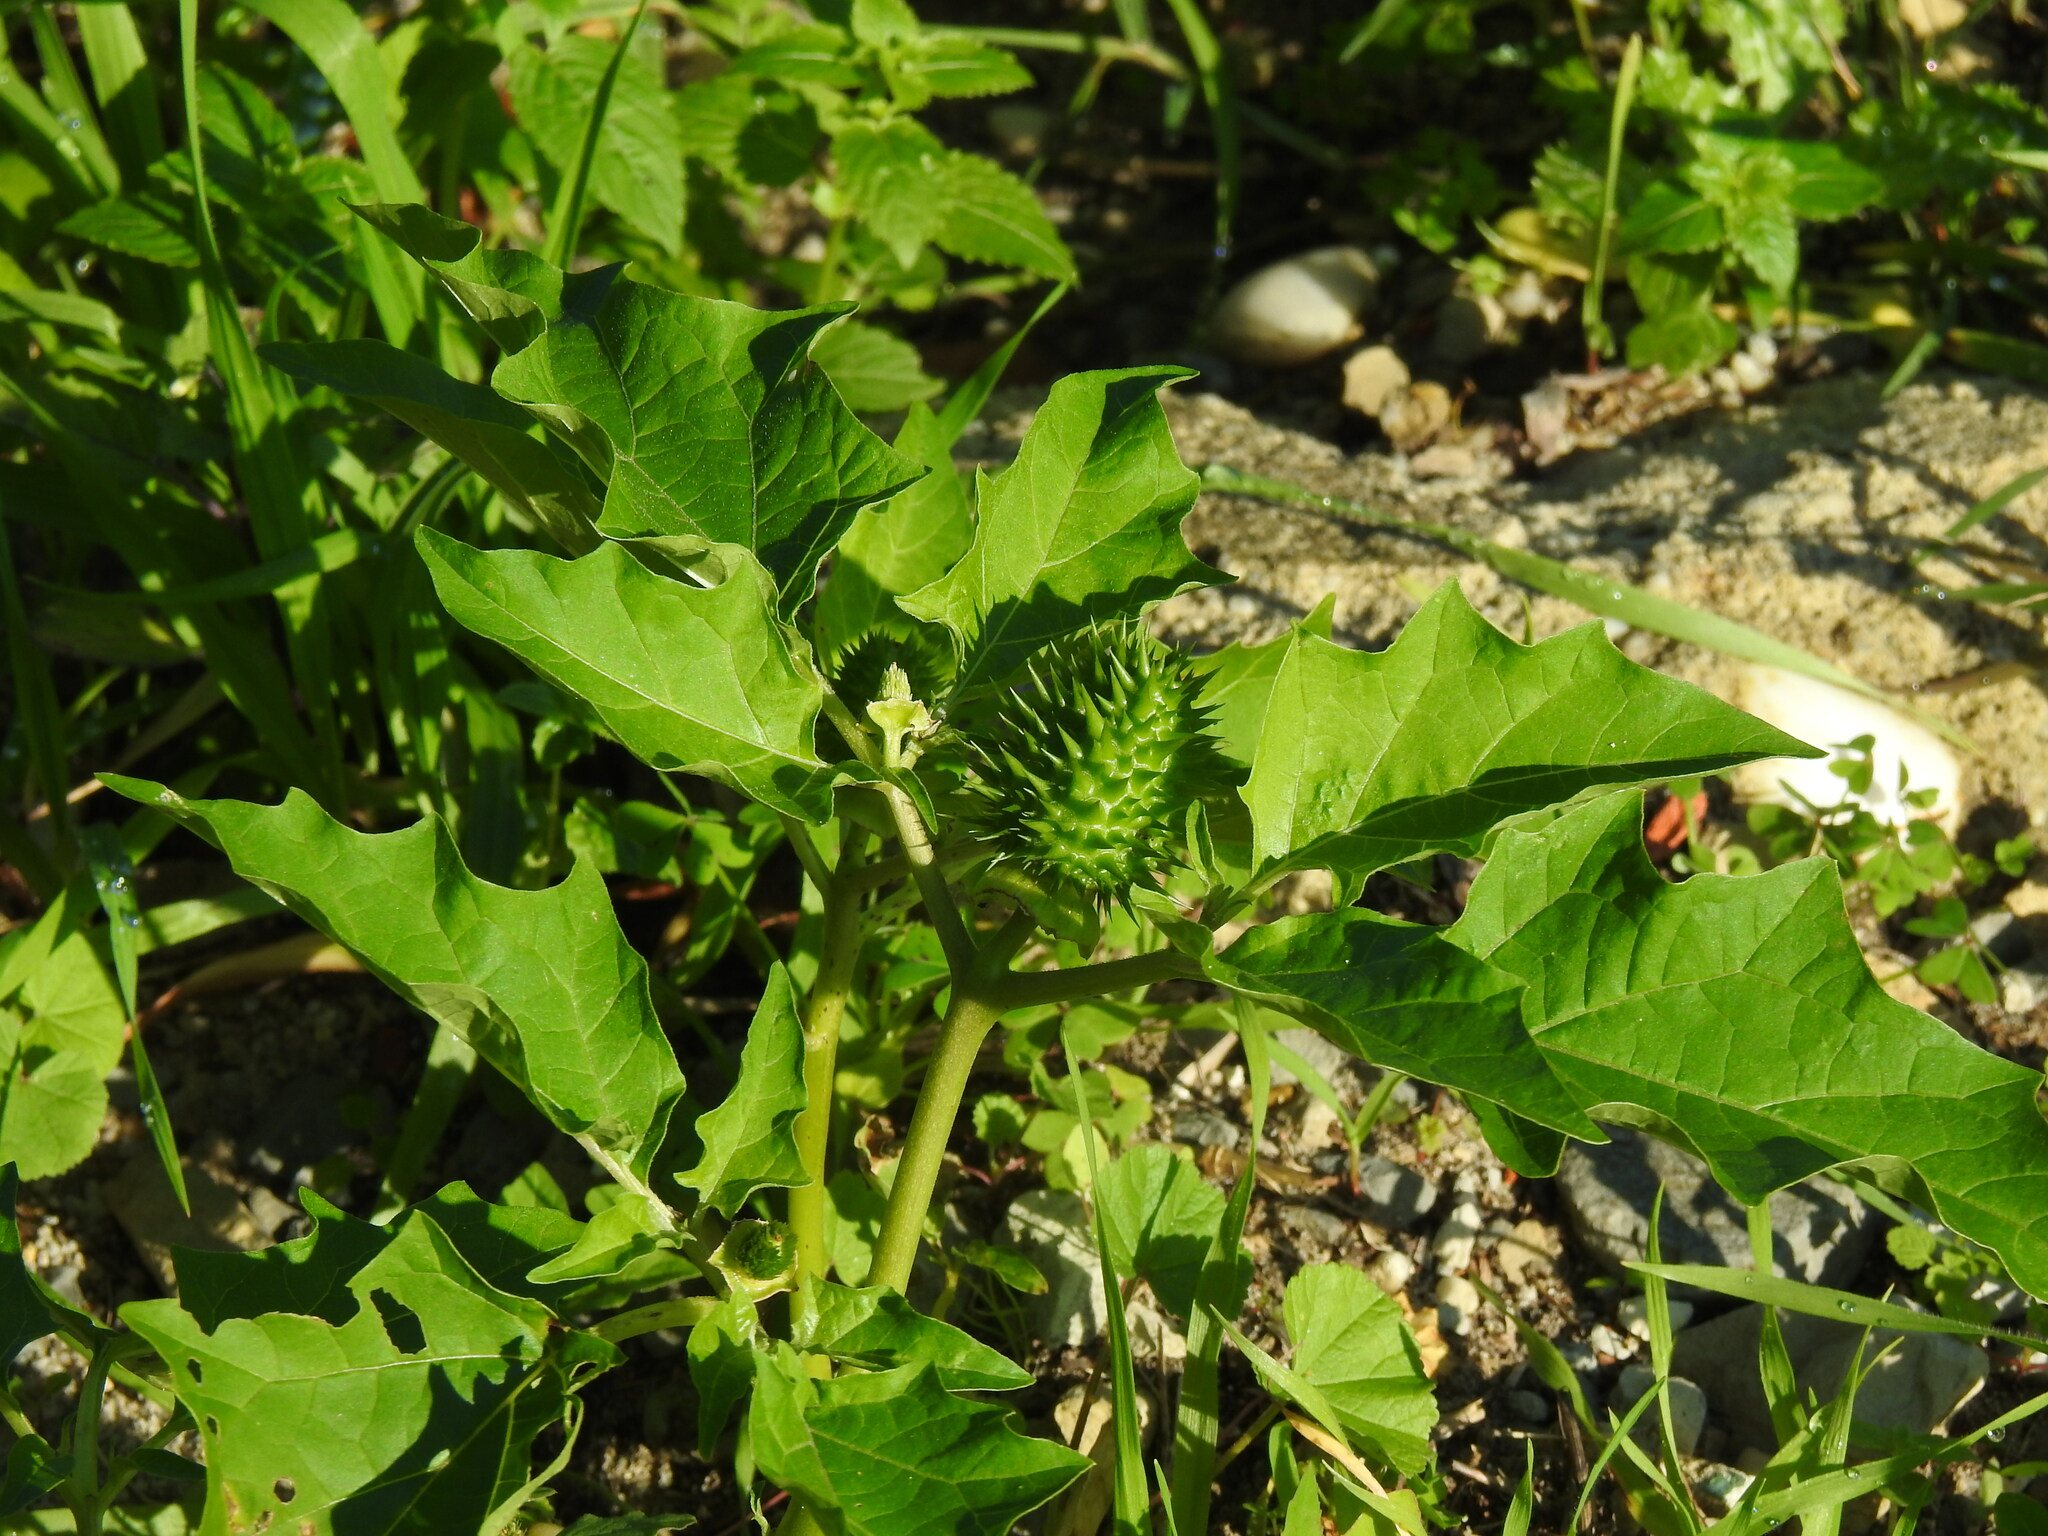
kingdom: Plantae
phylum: Tracheophyta
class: Magnoliopsida
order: Solanales
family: Solanaceae
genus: Datura
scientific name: Datura stramonium
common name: Thorn-apple
